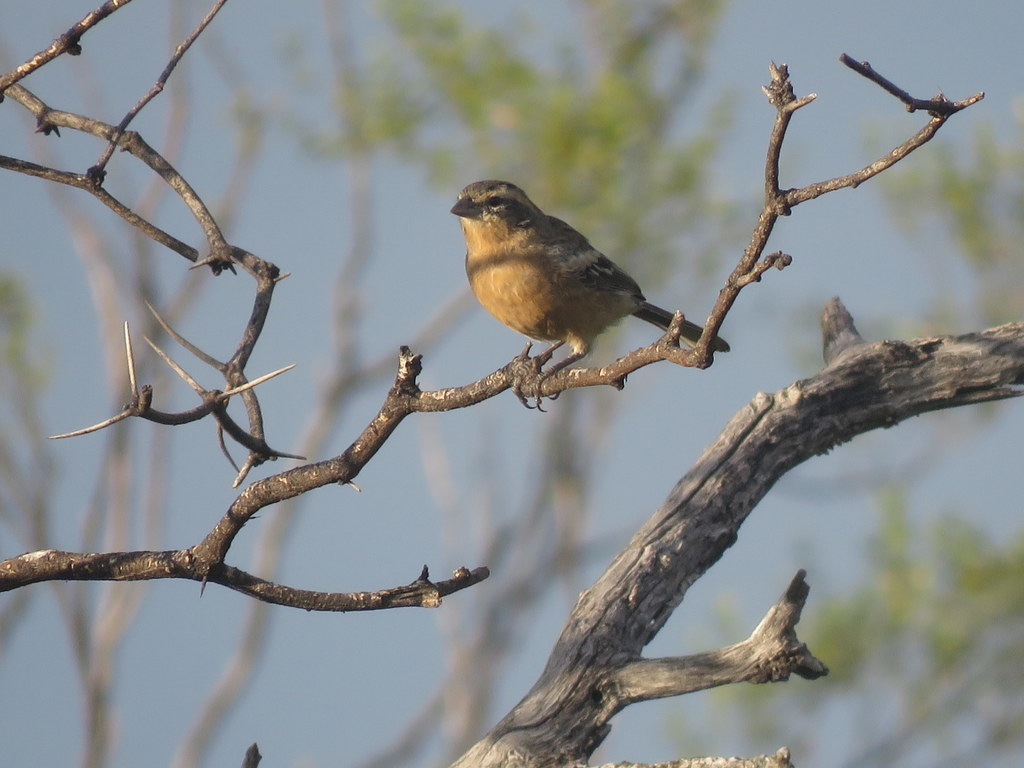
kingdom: Animalia
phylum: Chordata
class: Aves
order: Passeriformes
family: Thraupidae
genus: Poospiza
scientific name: Poospiza ornata
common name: Cinnamon warbling finch
